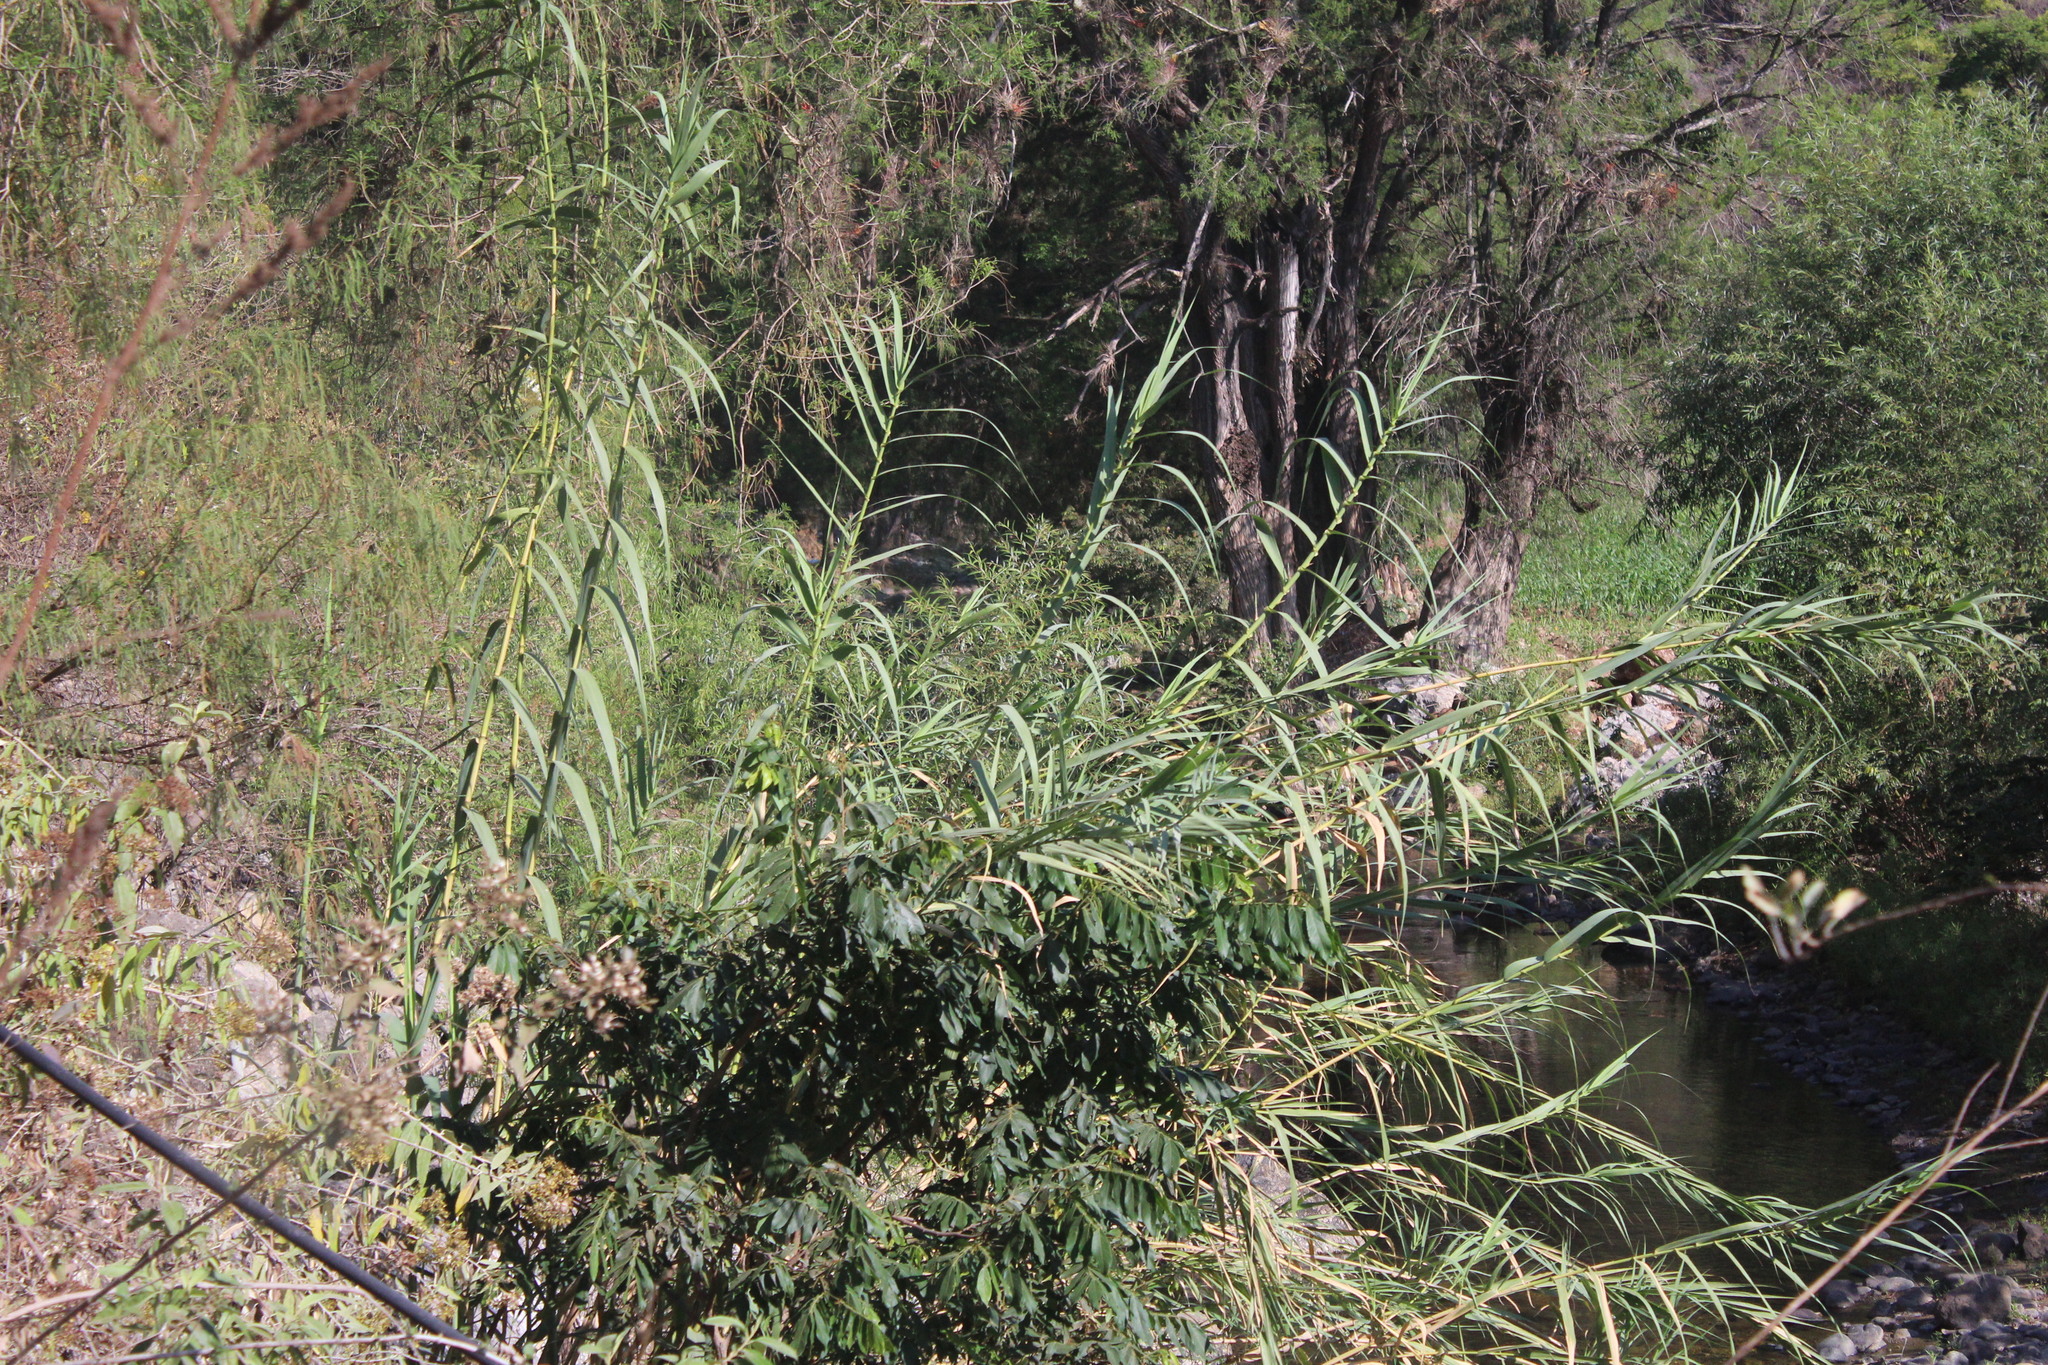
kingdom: Plantae
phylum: Tracheophyta
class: Liliopsida
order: Poales
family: Poaceae
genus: Arundo
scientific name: Arundo donax
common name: Giant reed
